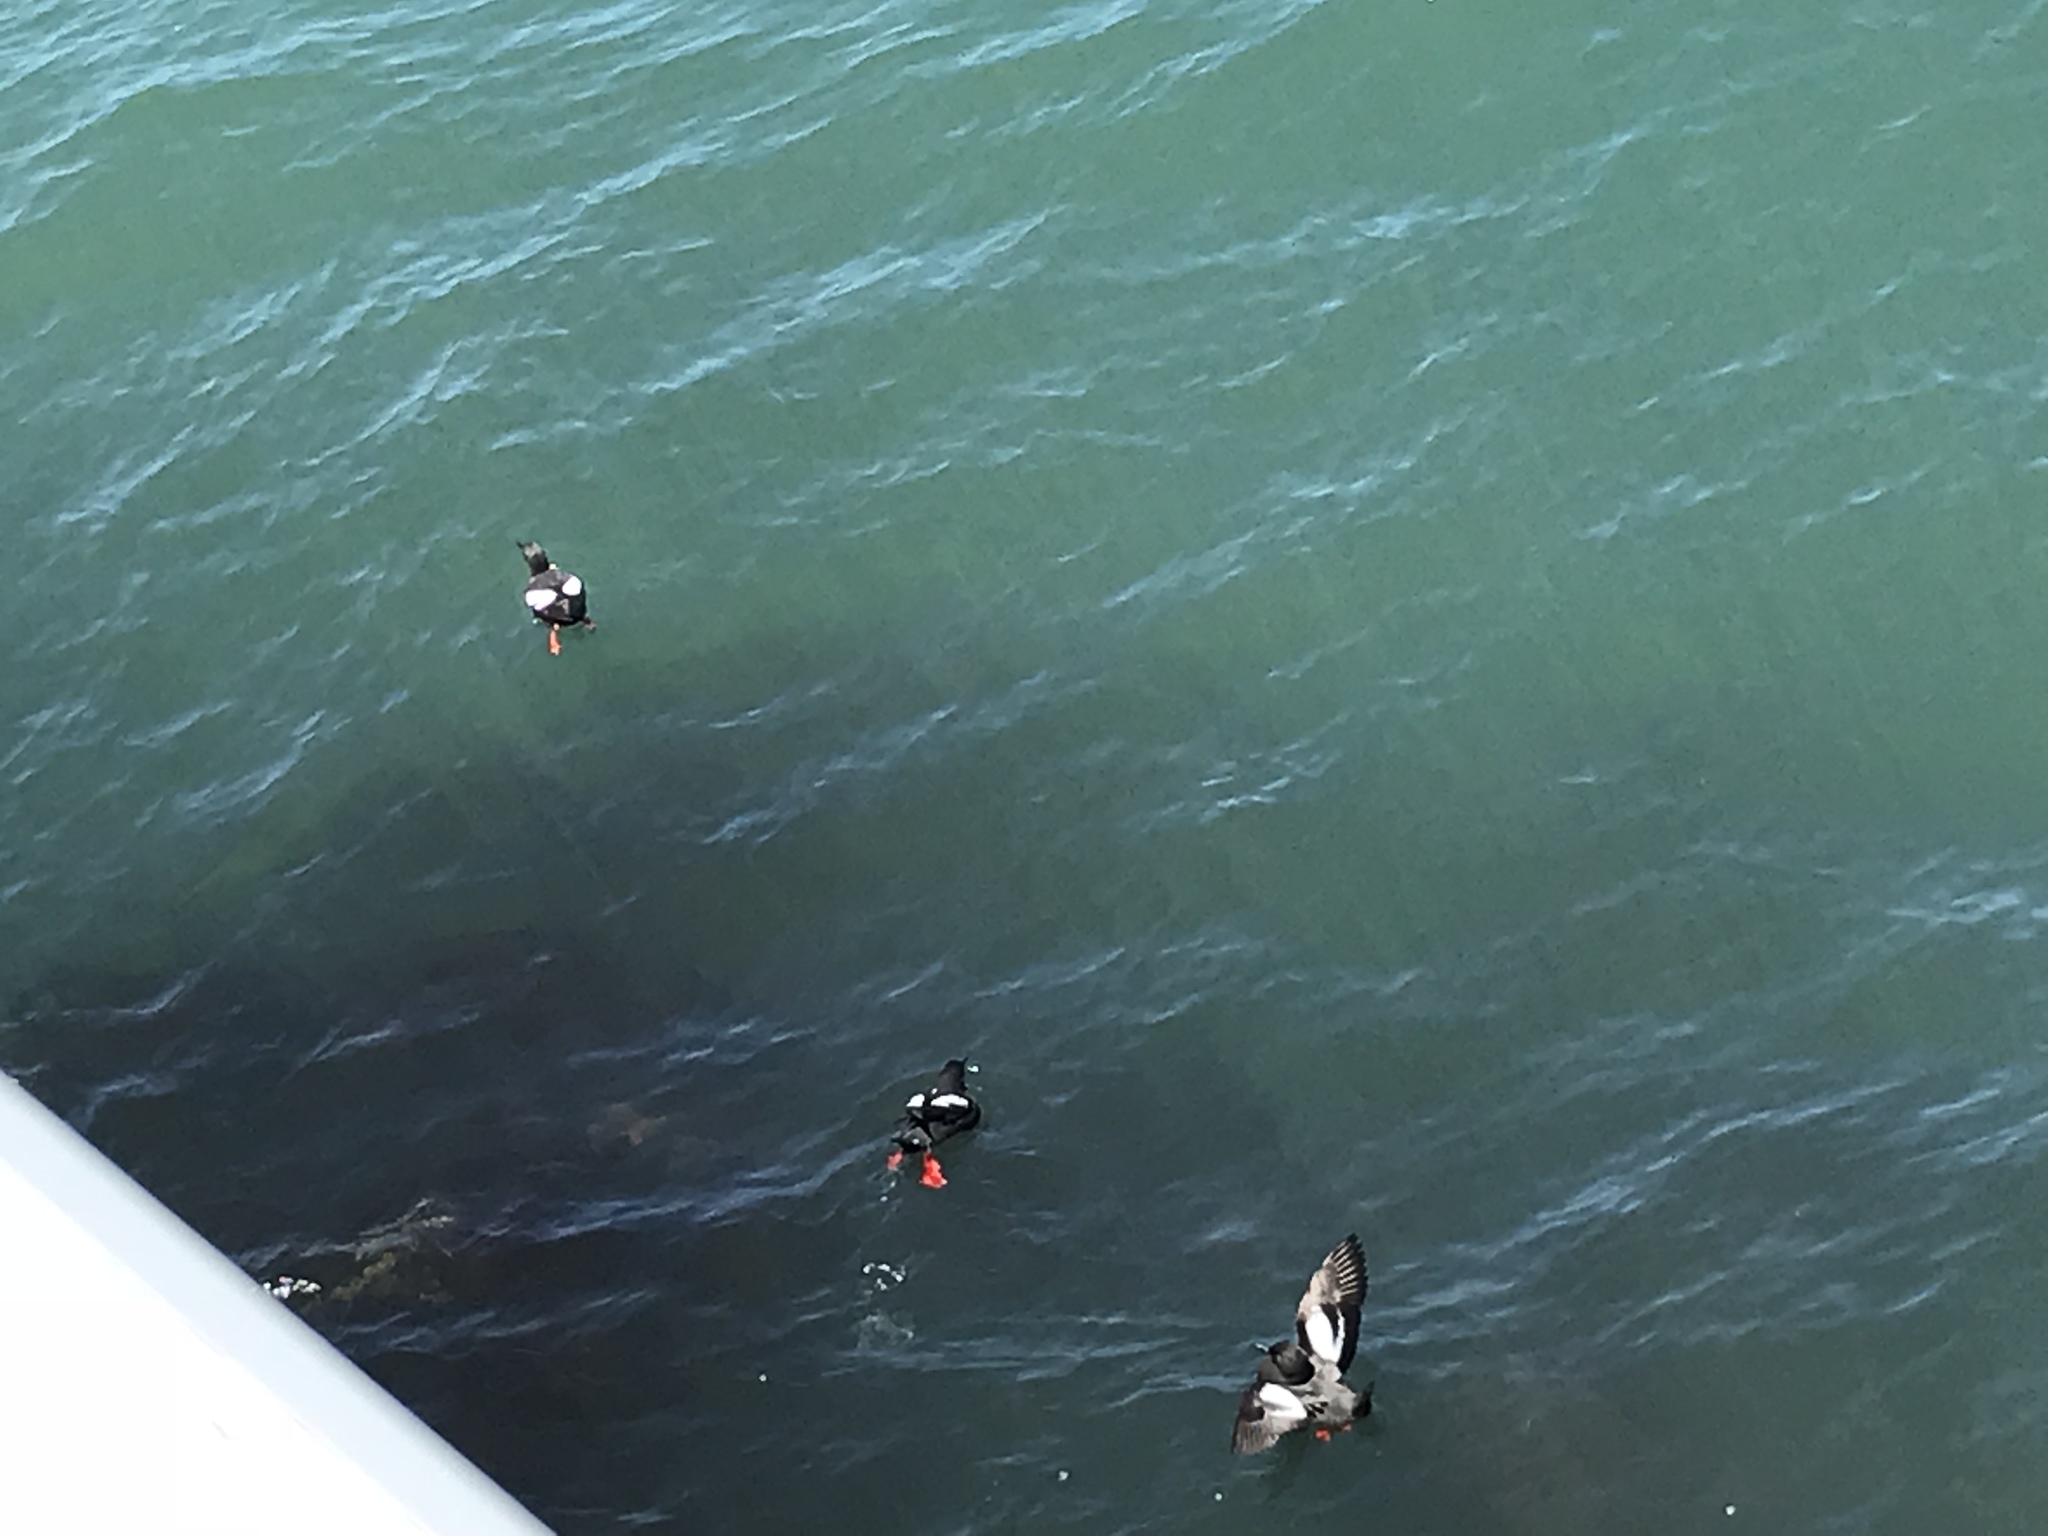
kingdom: Animalia
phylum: Chordata
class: Aves
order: Charadriiformes
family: Alcidae
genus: Cepphus
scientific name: Cepphus columba
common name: Pigeon guillemot
